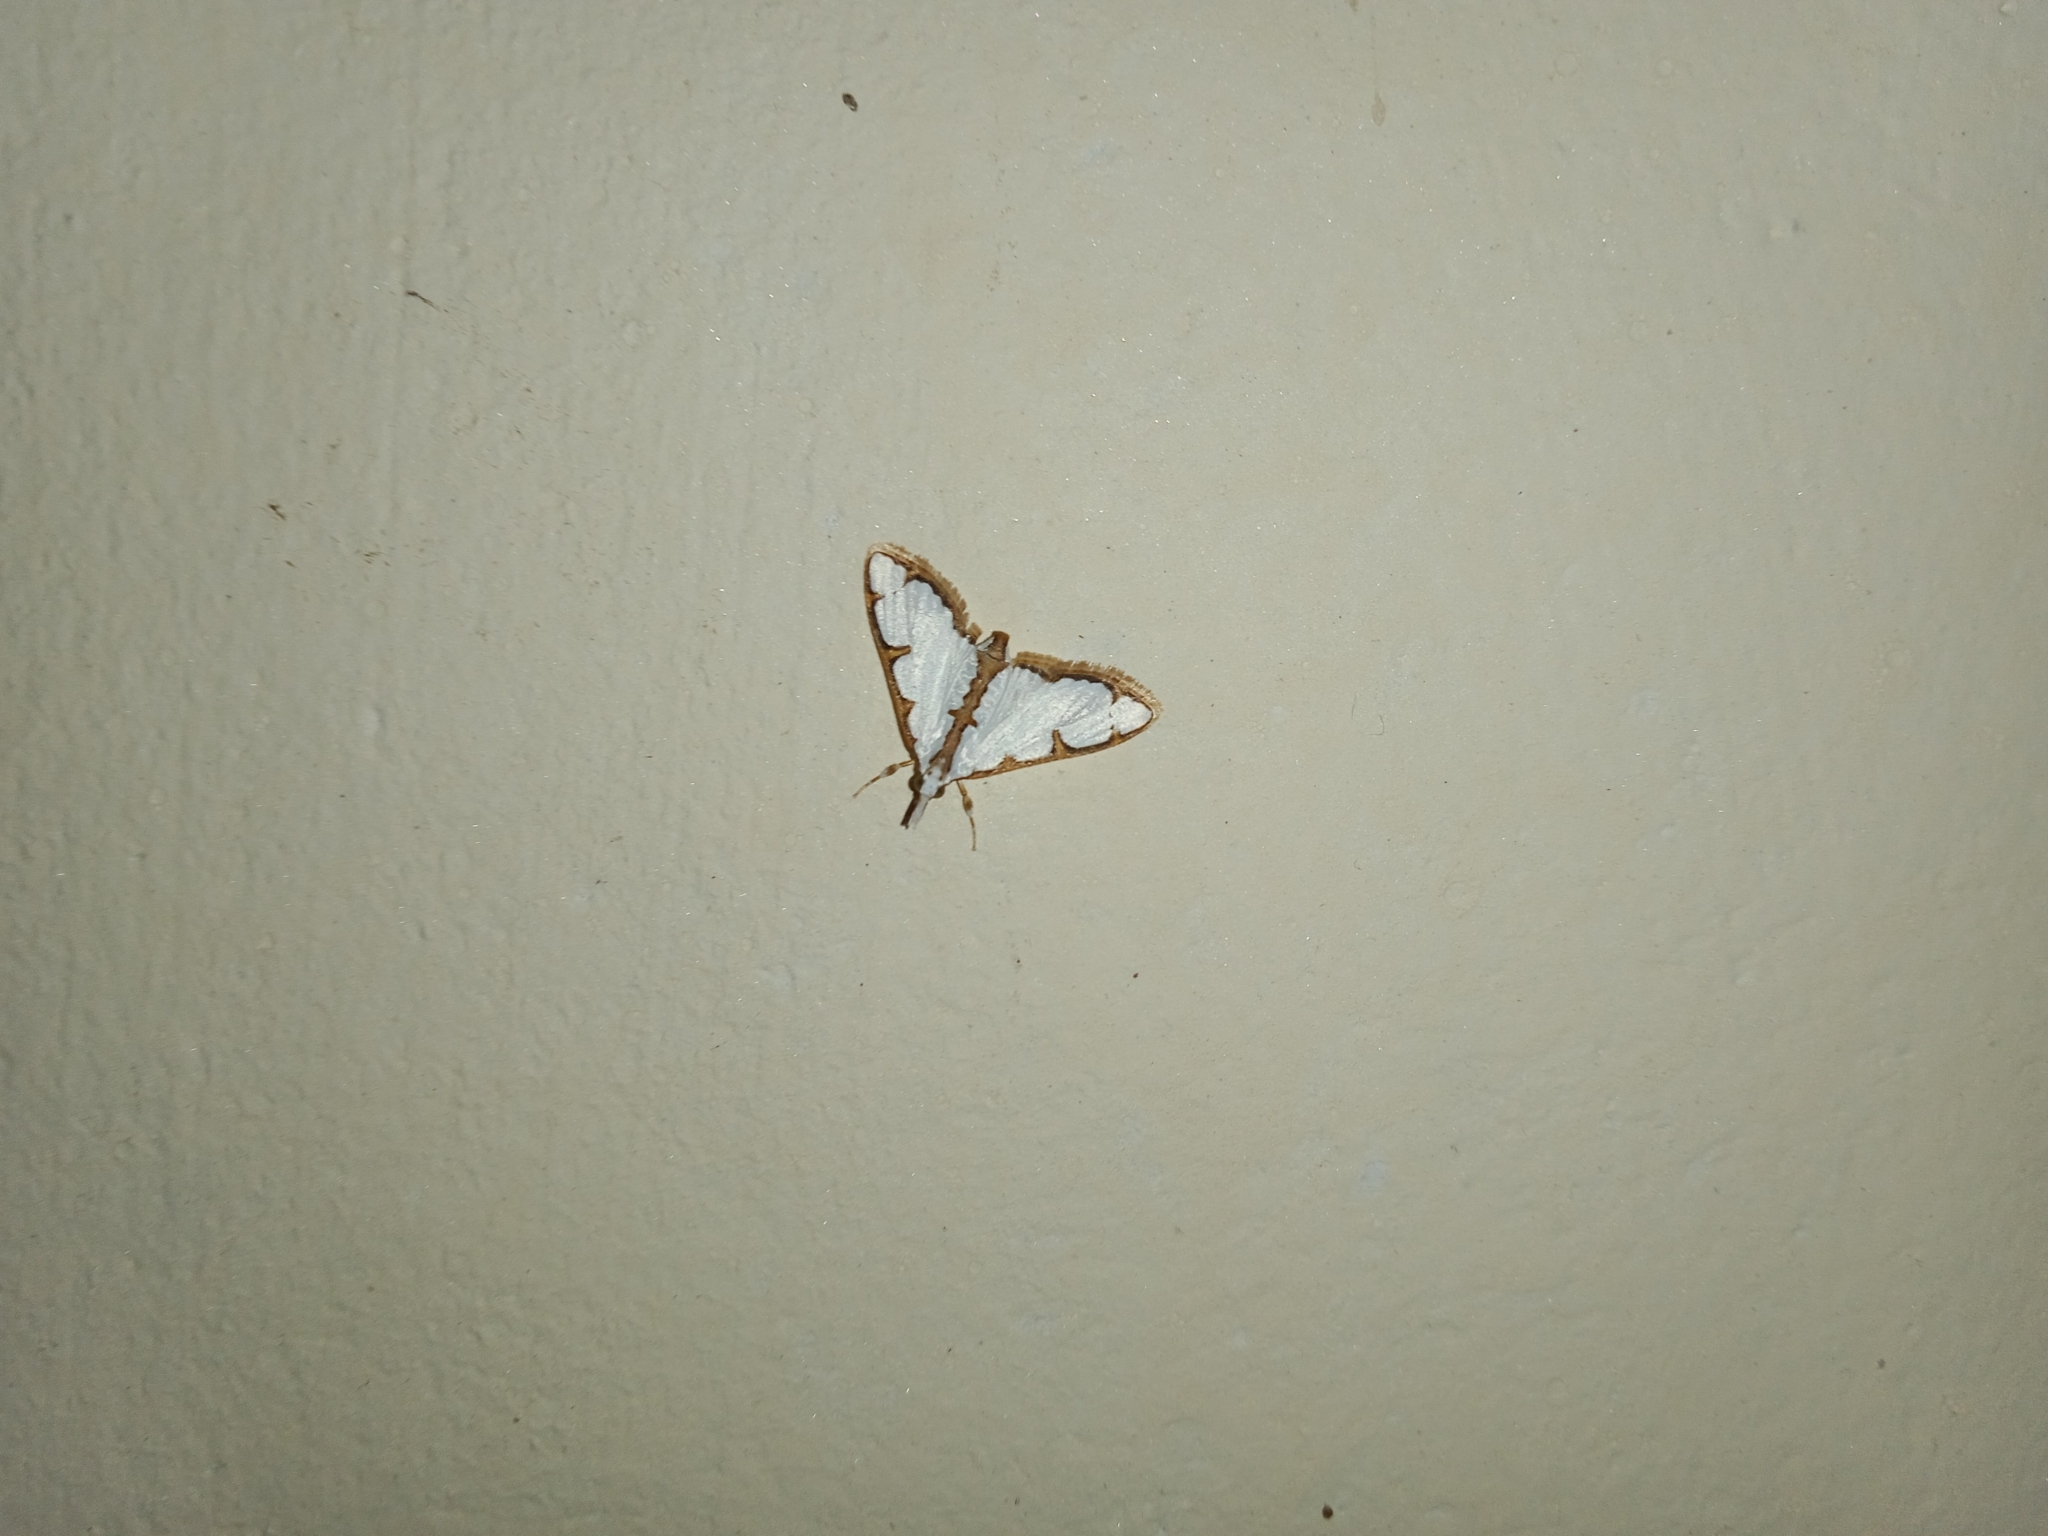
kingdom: Animalia
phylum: Arthropoda
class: Insecta
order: Lepidoptera
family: Crambidae
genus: Cirrhochrista
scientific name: Cirrhochrista brizoalis
